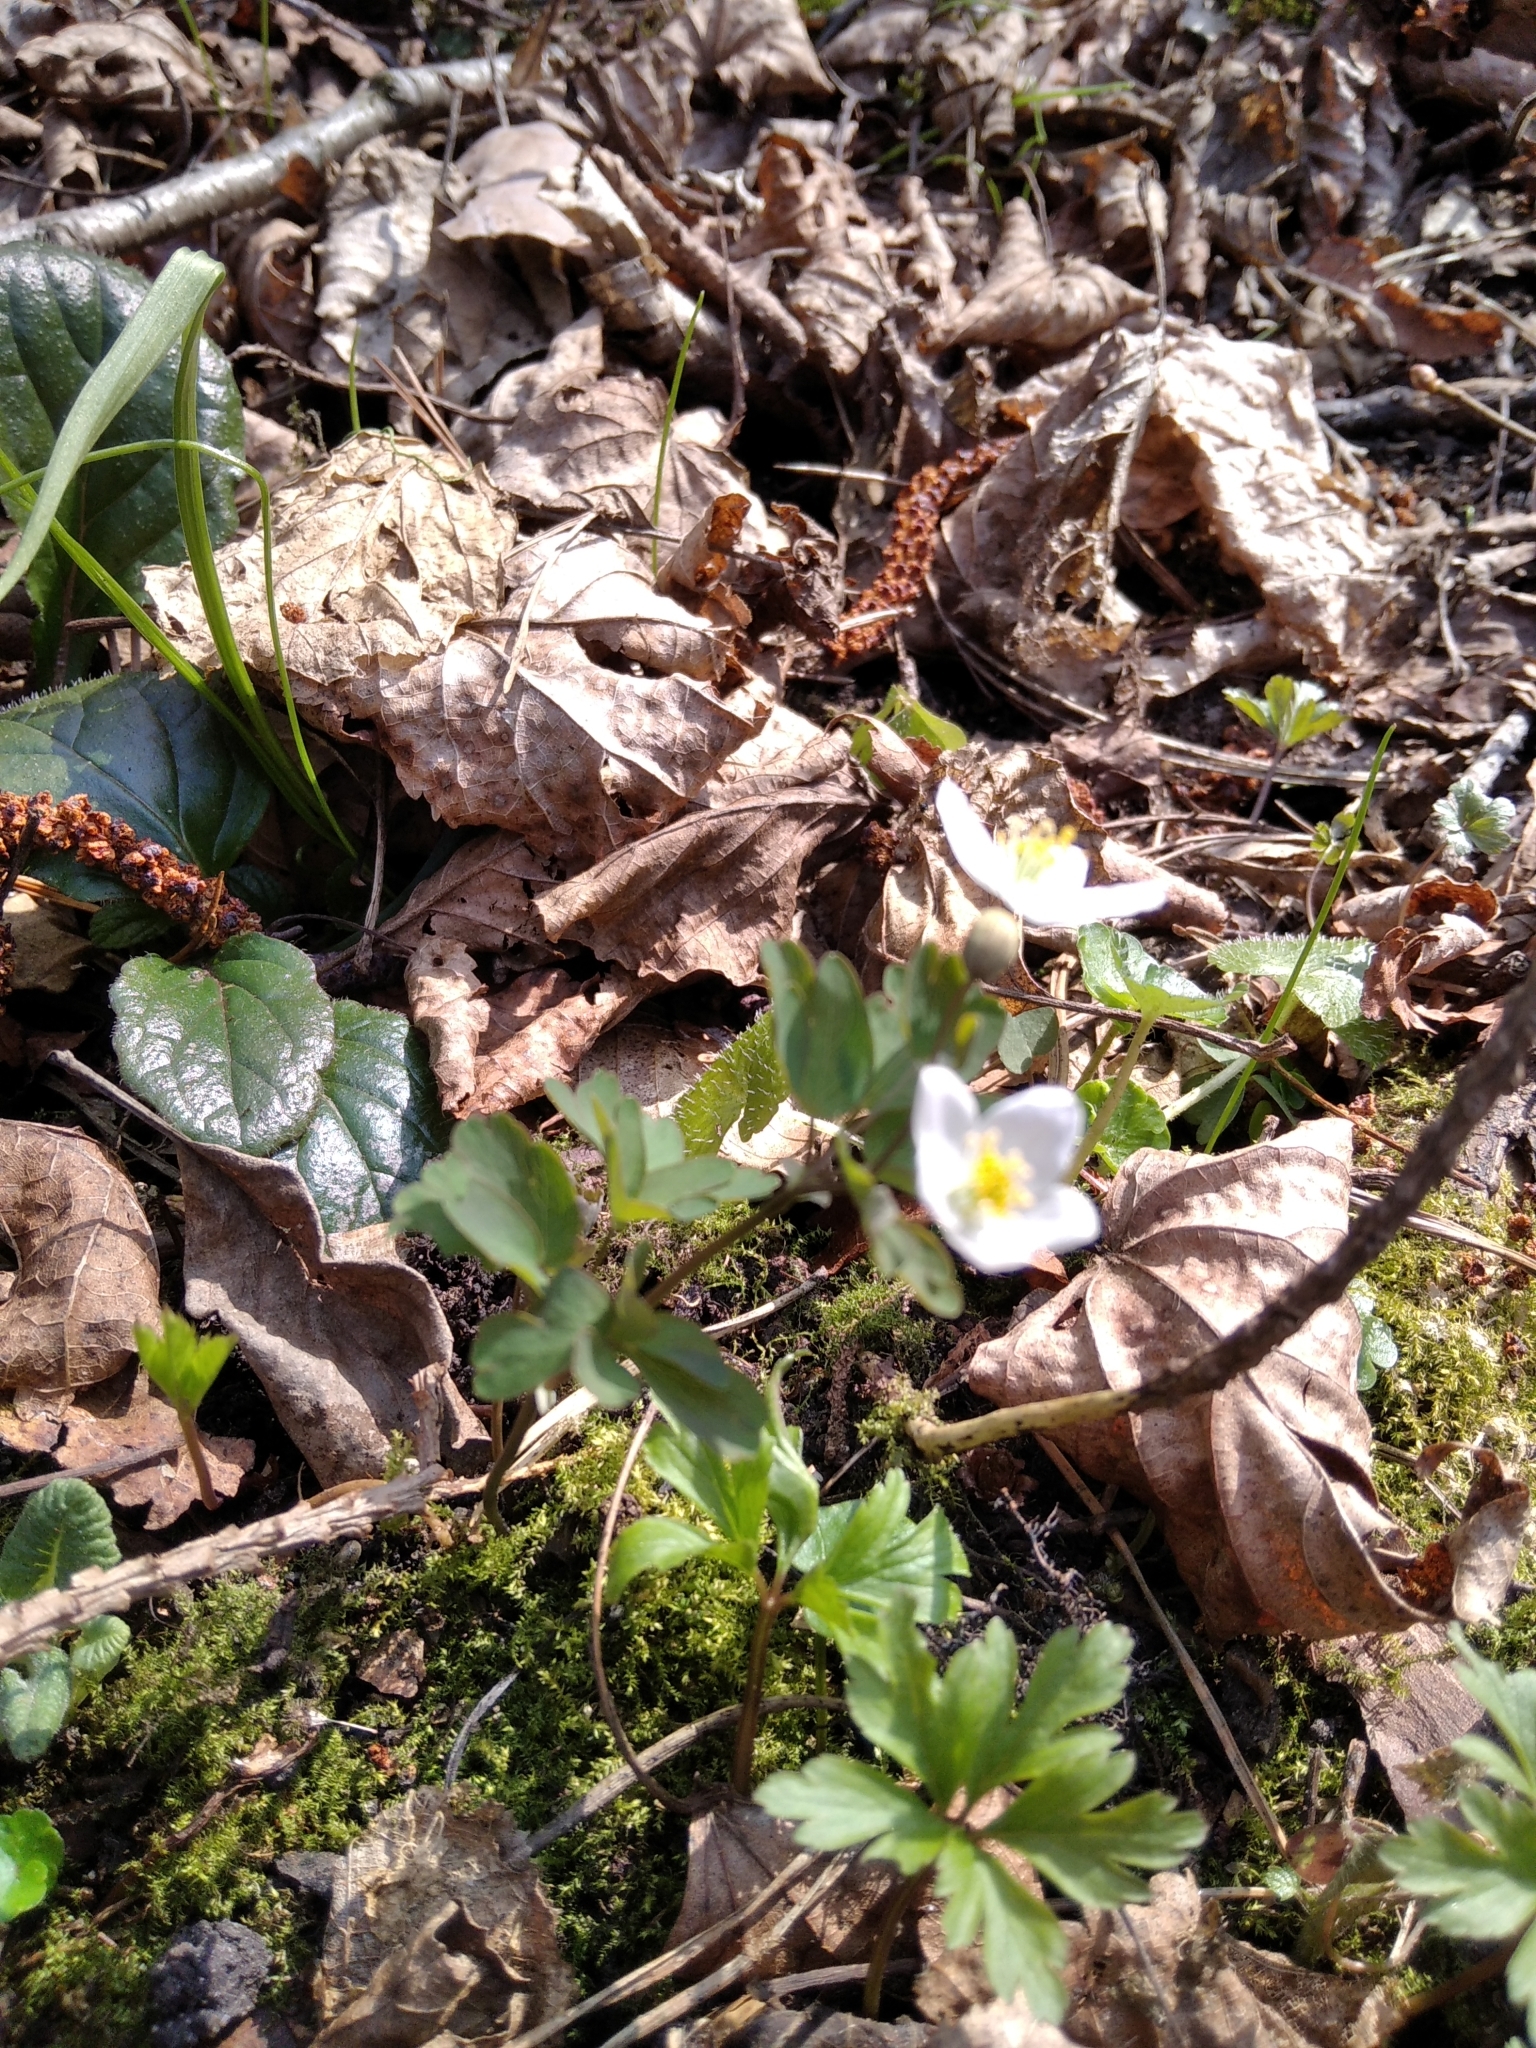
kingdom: Plantae
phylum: Tracheophyta
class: Magnoliopsida
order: Ranunculales
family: Ranunculaceae
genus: Isopyrum
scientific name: Isopyrum thalictroides
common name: Isopyrum
